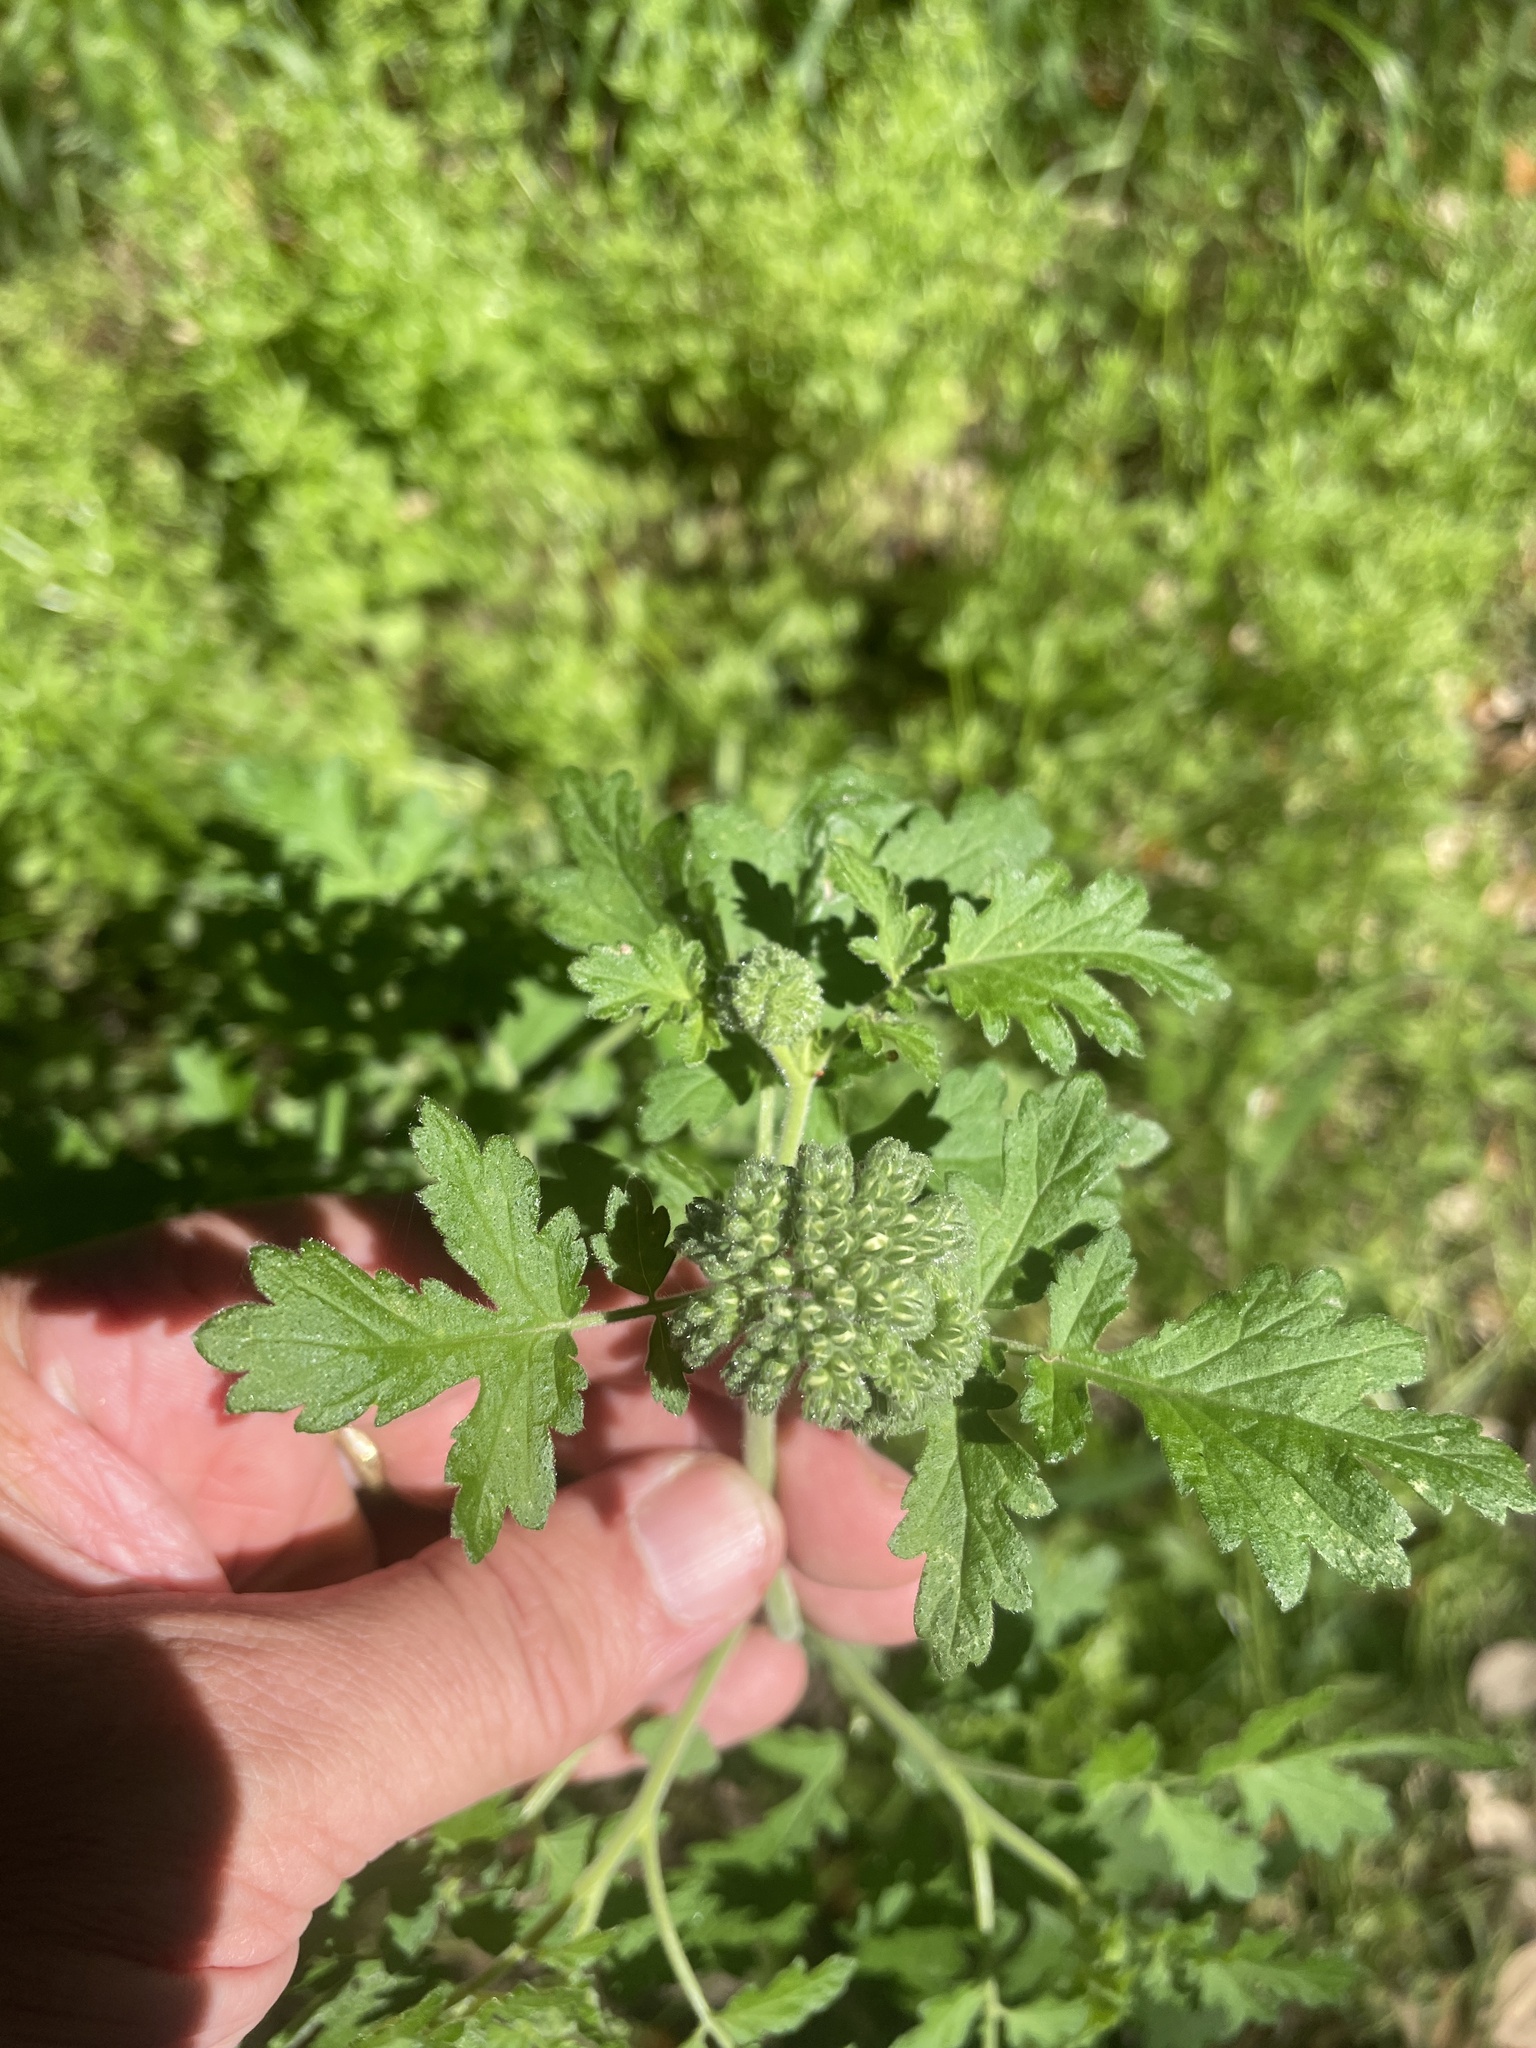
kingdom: Plantae
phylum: Tracheophyta
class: Magnoliopsida
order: Boraginales
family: Hydrophyllaceae
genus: Phacelia
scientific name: Phacelia congesta
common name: Blue curls
